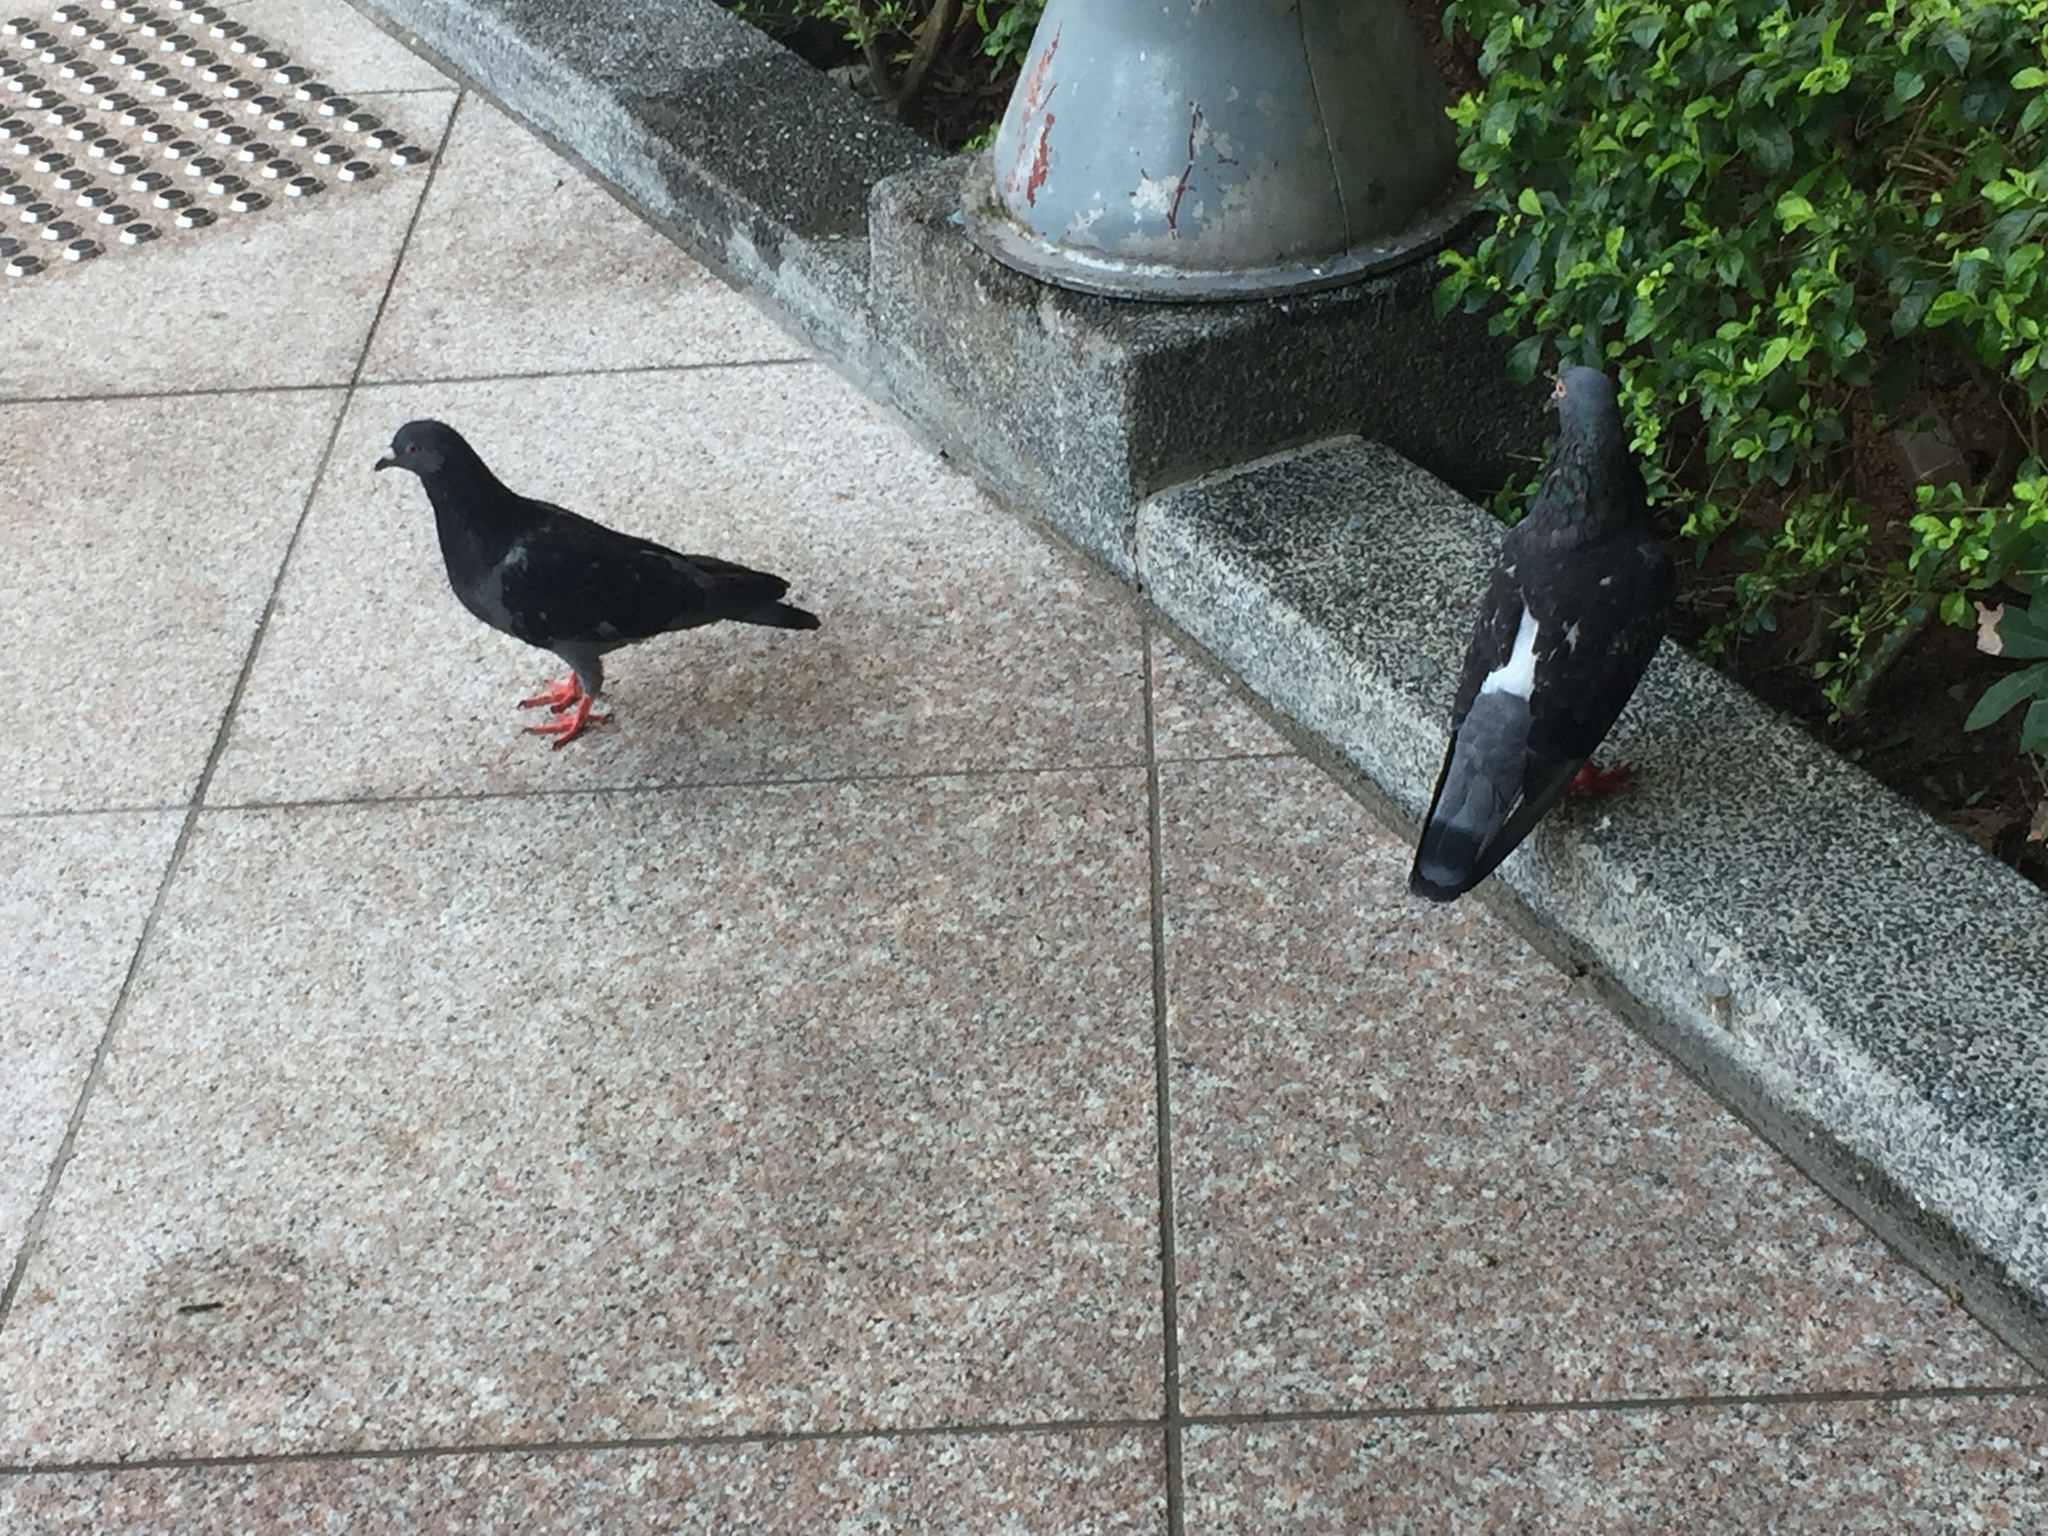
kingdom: Animalia
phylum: Chordata
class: Aves
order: Columbiformes
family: Columbidae
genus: Columba
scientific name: Columba livia
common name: Rock pigeon
